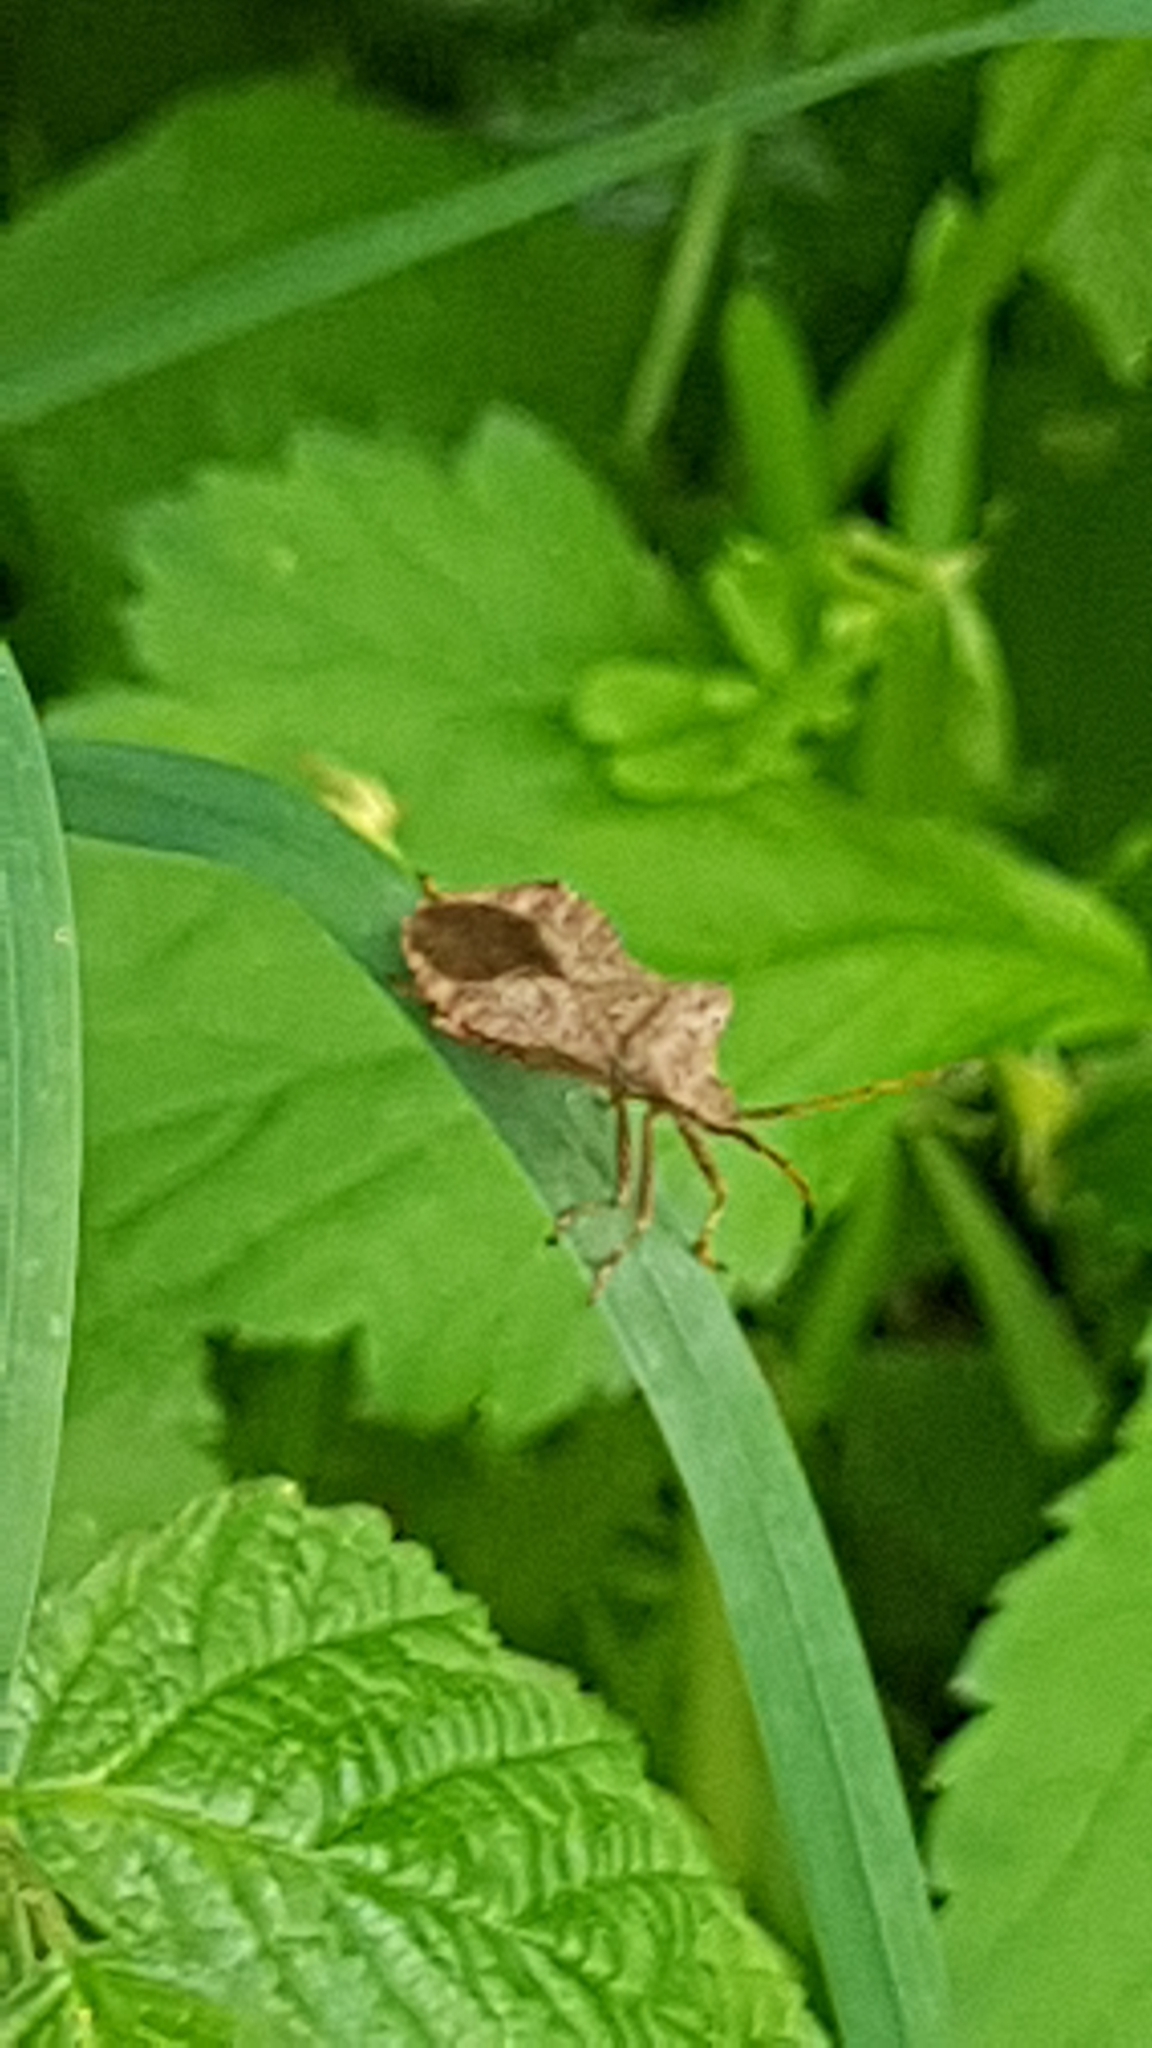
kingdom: Animalia
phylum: Arthropoda
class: Insecta
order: Hemiptera
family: Coreidae
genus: Coreus
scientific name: Coreus marginatus
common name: Dock bug
